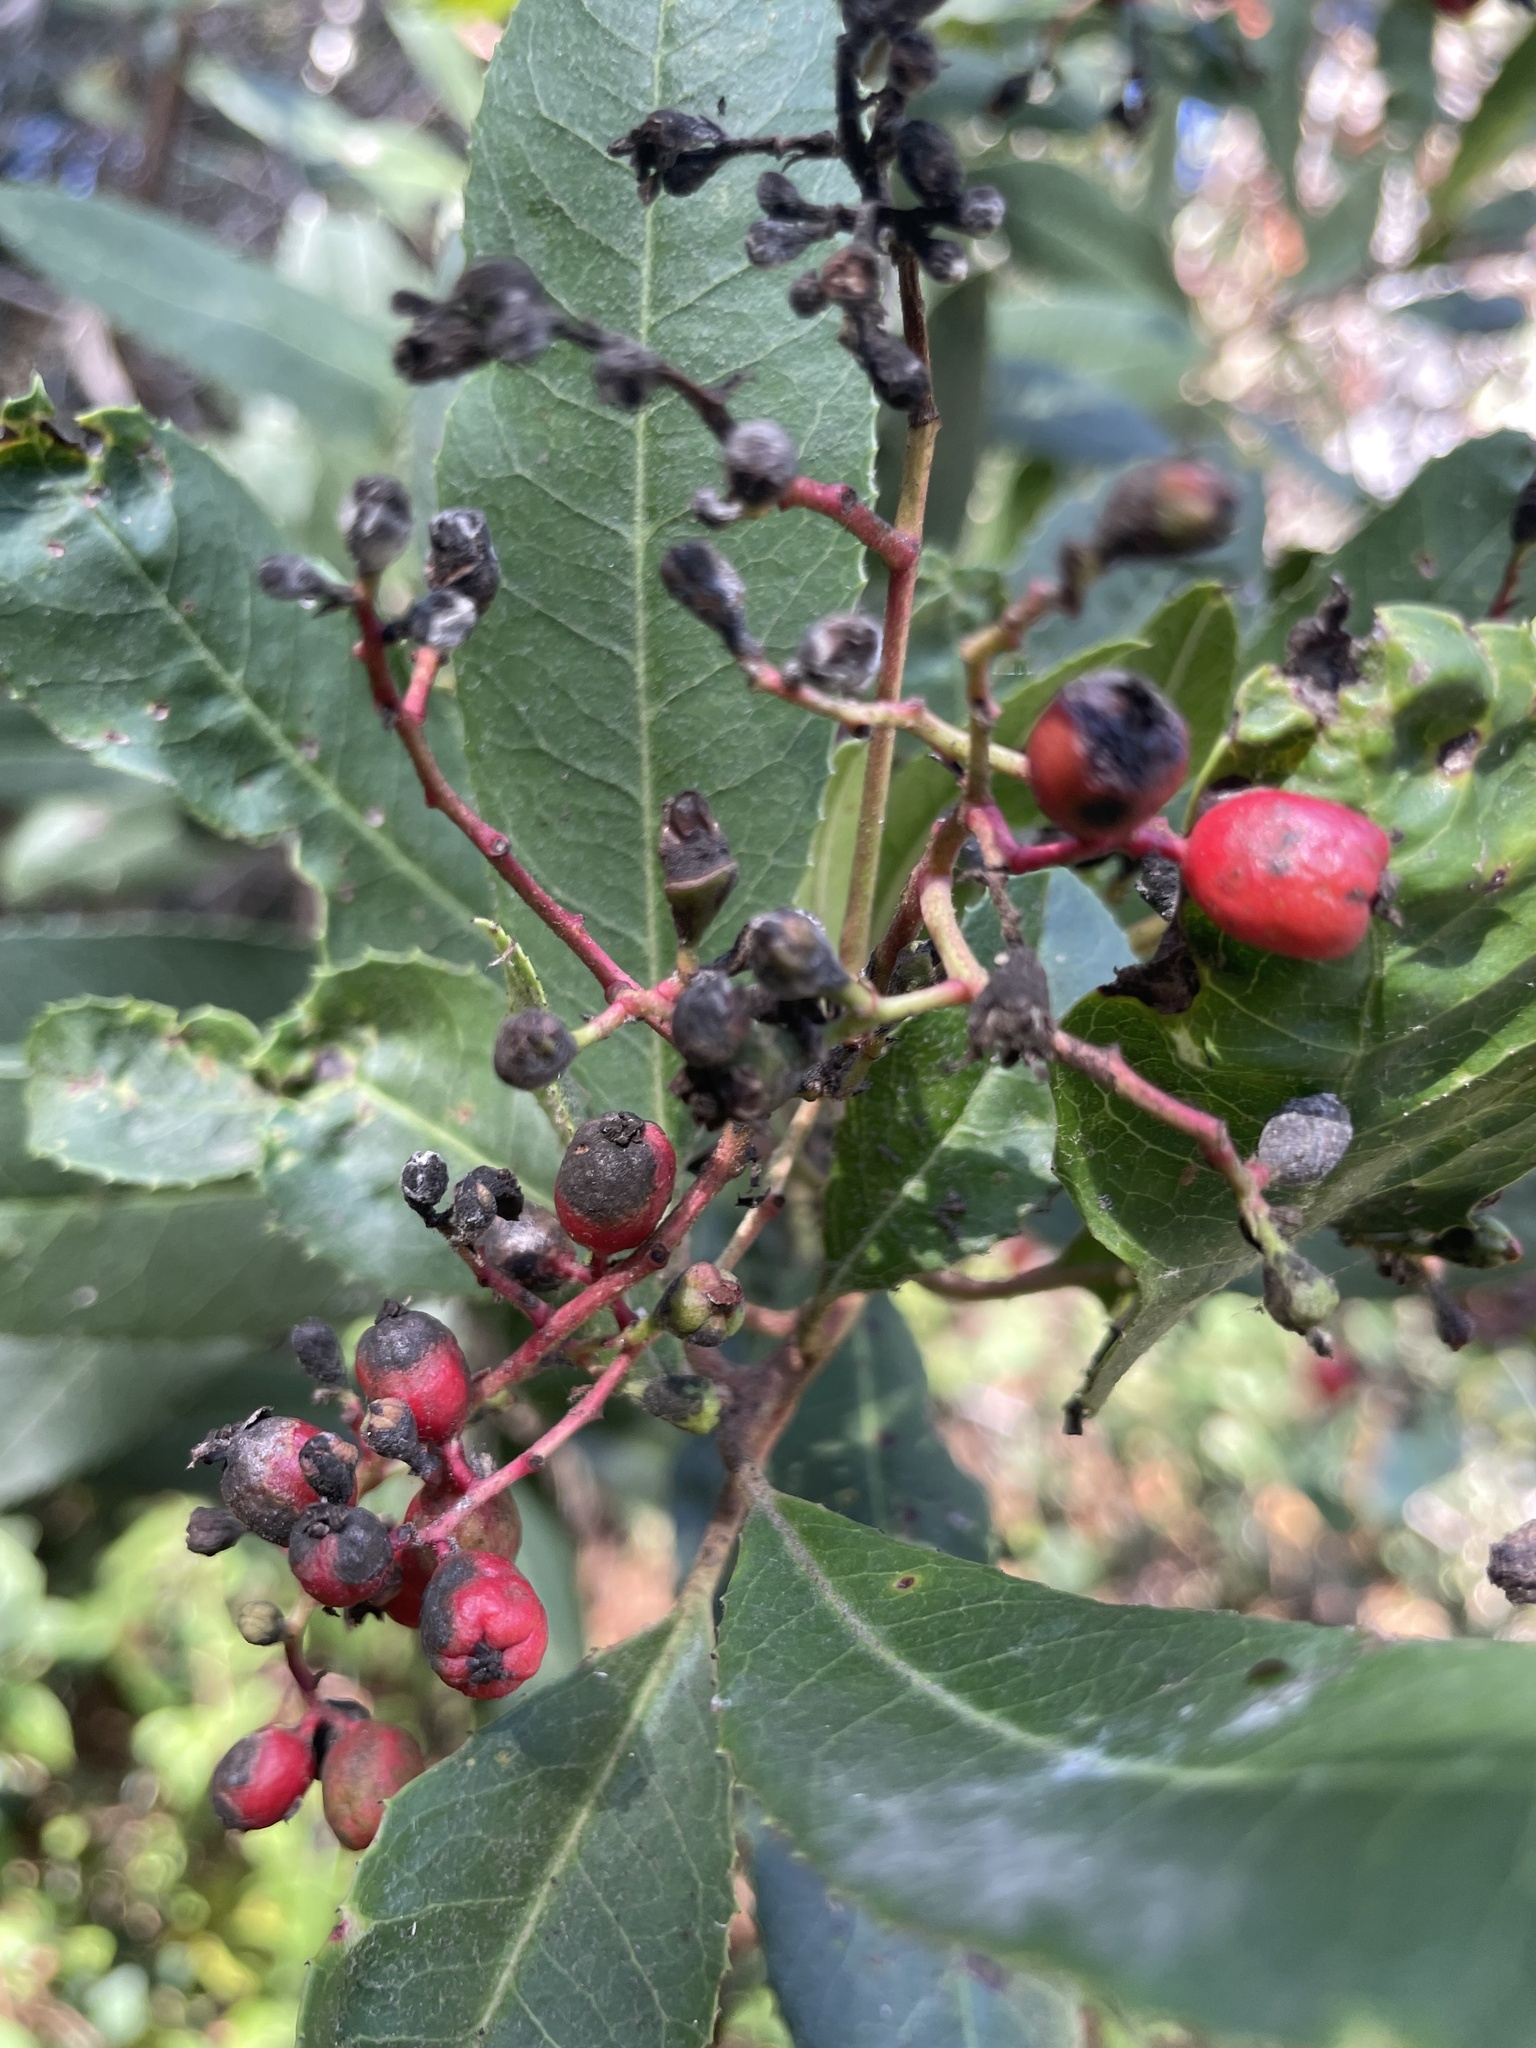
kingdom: Animalia
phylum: Arthropoda
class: Insecta
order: Diptera
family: Cecidomyiidae
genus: Asphondylia
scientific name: Asphondylia photiniae
